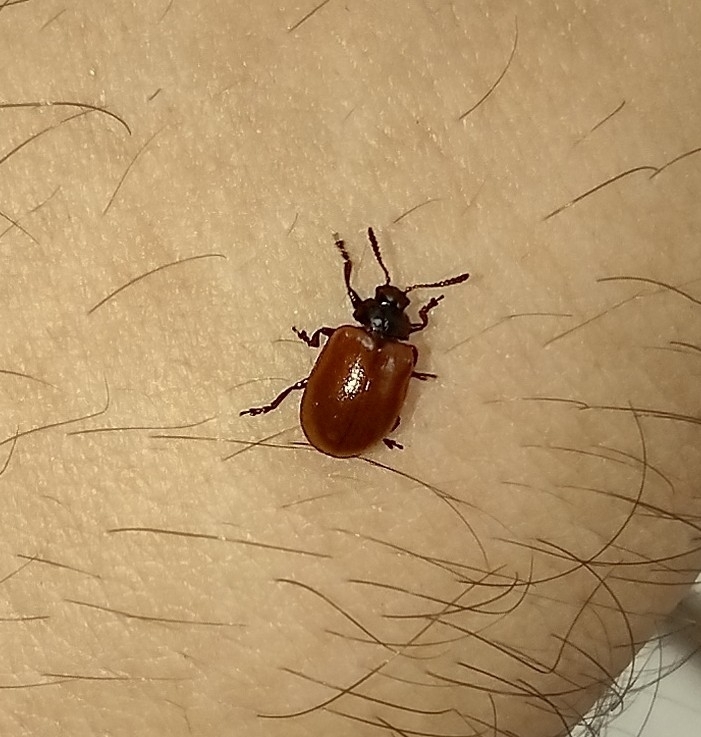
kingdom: Animalia
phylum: Arthropoda
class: Insecta
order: Coleoptera
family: Chrysomelidae
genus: Plagiodera
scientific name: Plagiodera
